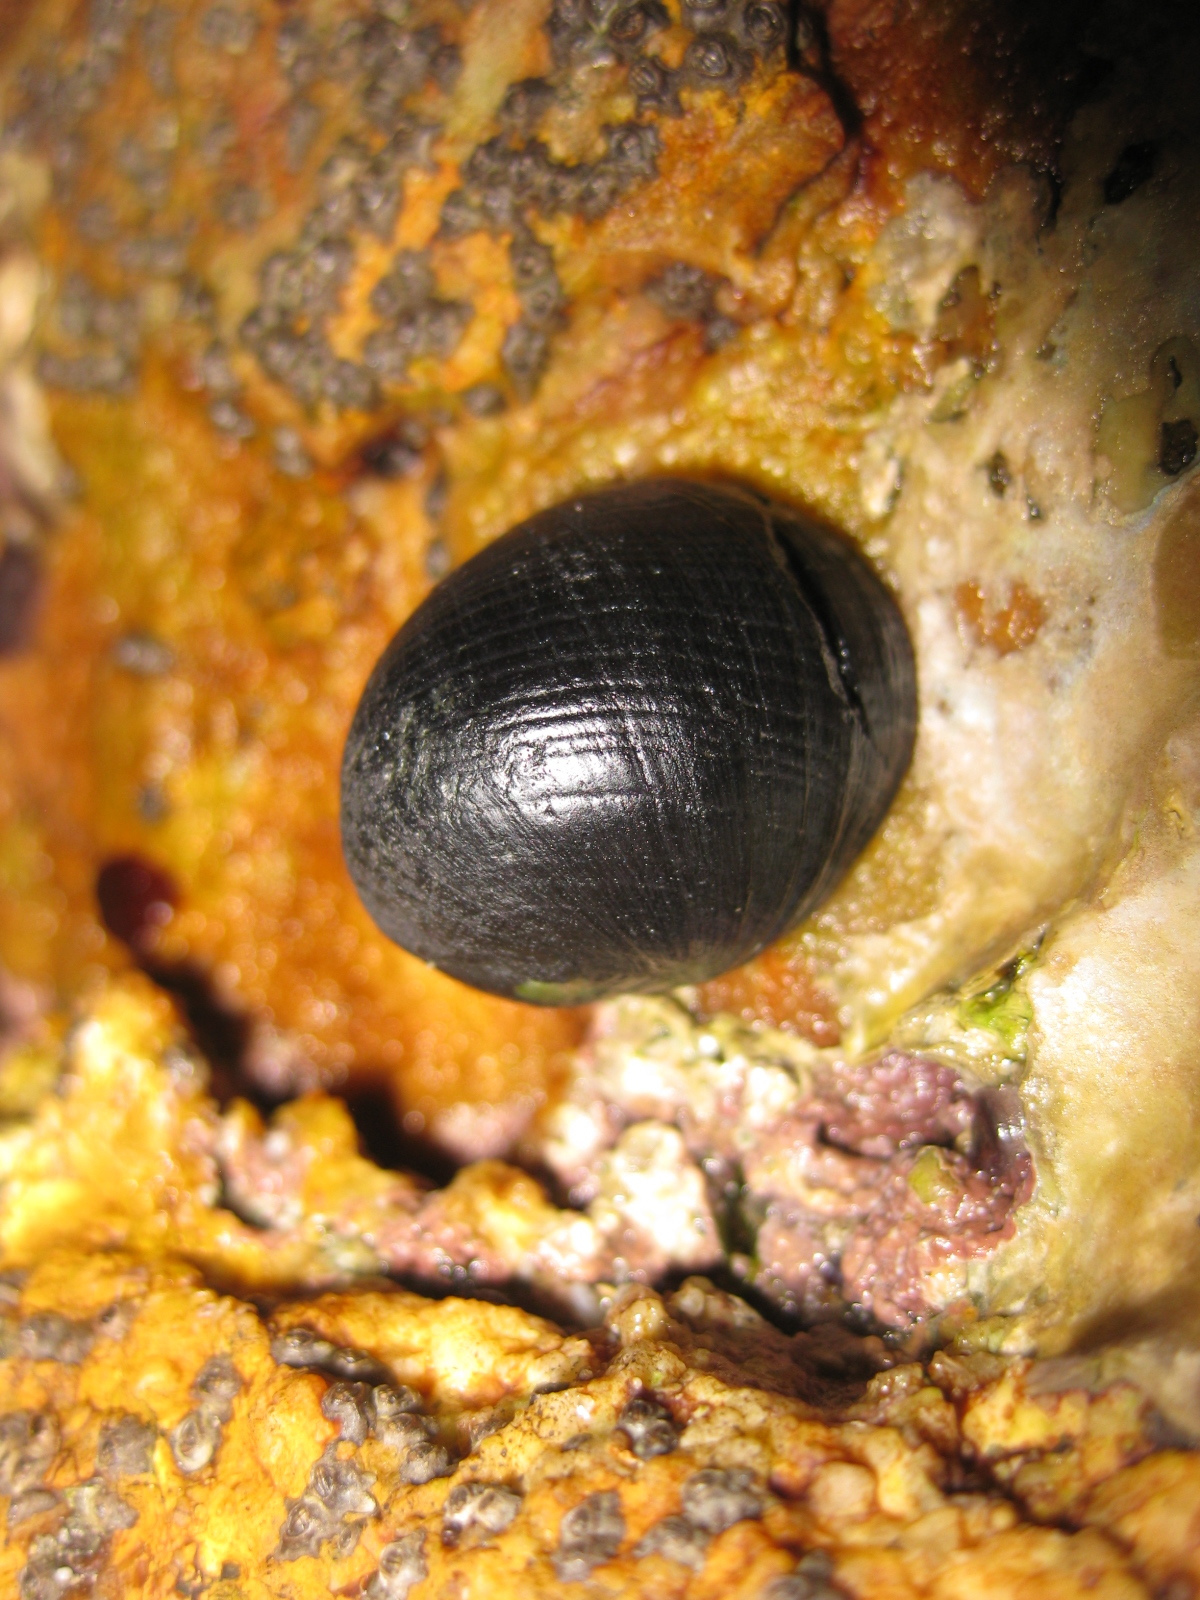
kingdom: Animalia
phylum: Mollusca
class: Gastropoda
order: Cycloneritida
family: Neritidae
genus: Nerita
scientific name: Nerita melanotragus
